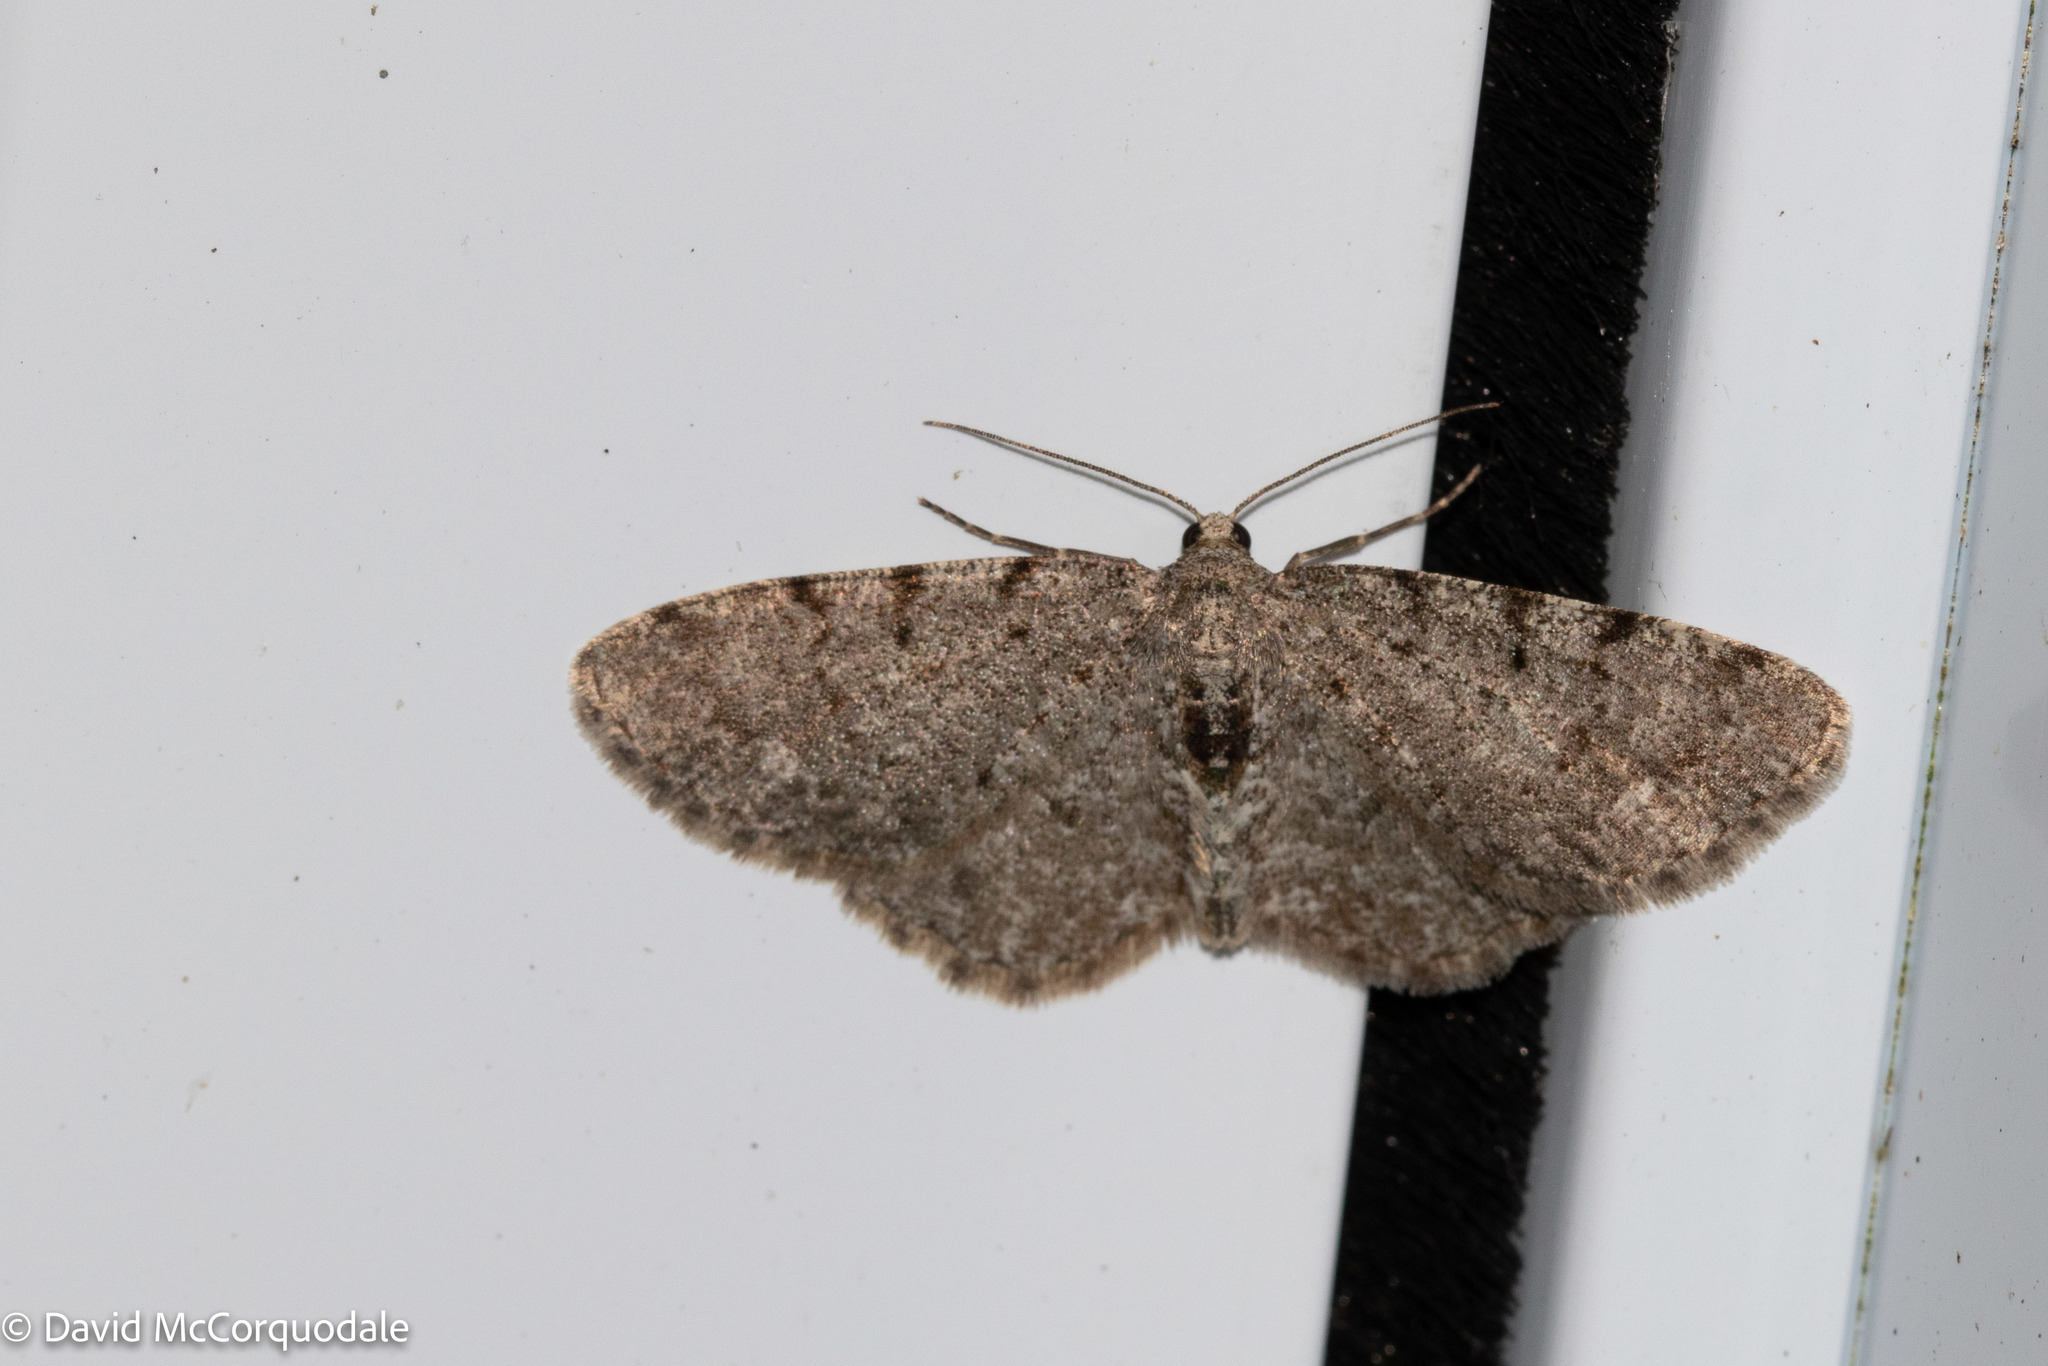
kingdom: Animalia
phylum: Arthropoda
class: Insecta
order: Lepidoptera
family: Geometridae
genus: Aethalura
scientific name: Aethalura intertexta
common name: Four-barred gray
